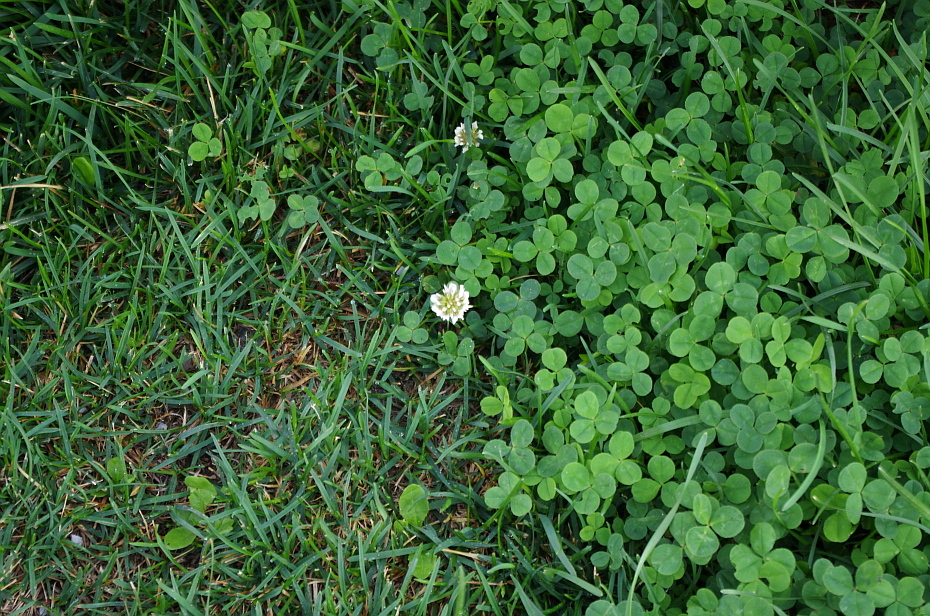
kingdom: Plantae
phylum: Tracheophyta
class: Magnoliopsida
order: Fabales
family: Fabaceae
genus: Trifolium
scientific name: Trifolium repens
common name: White clover
